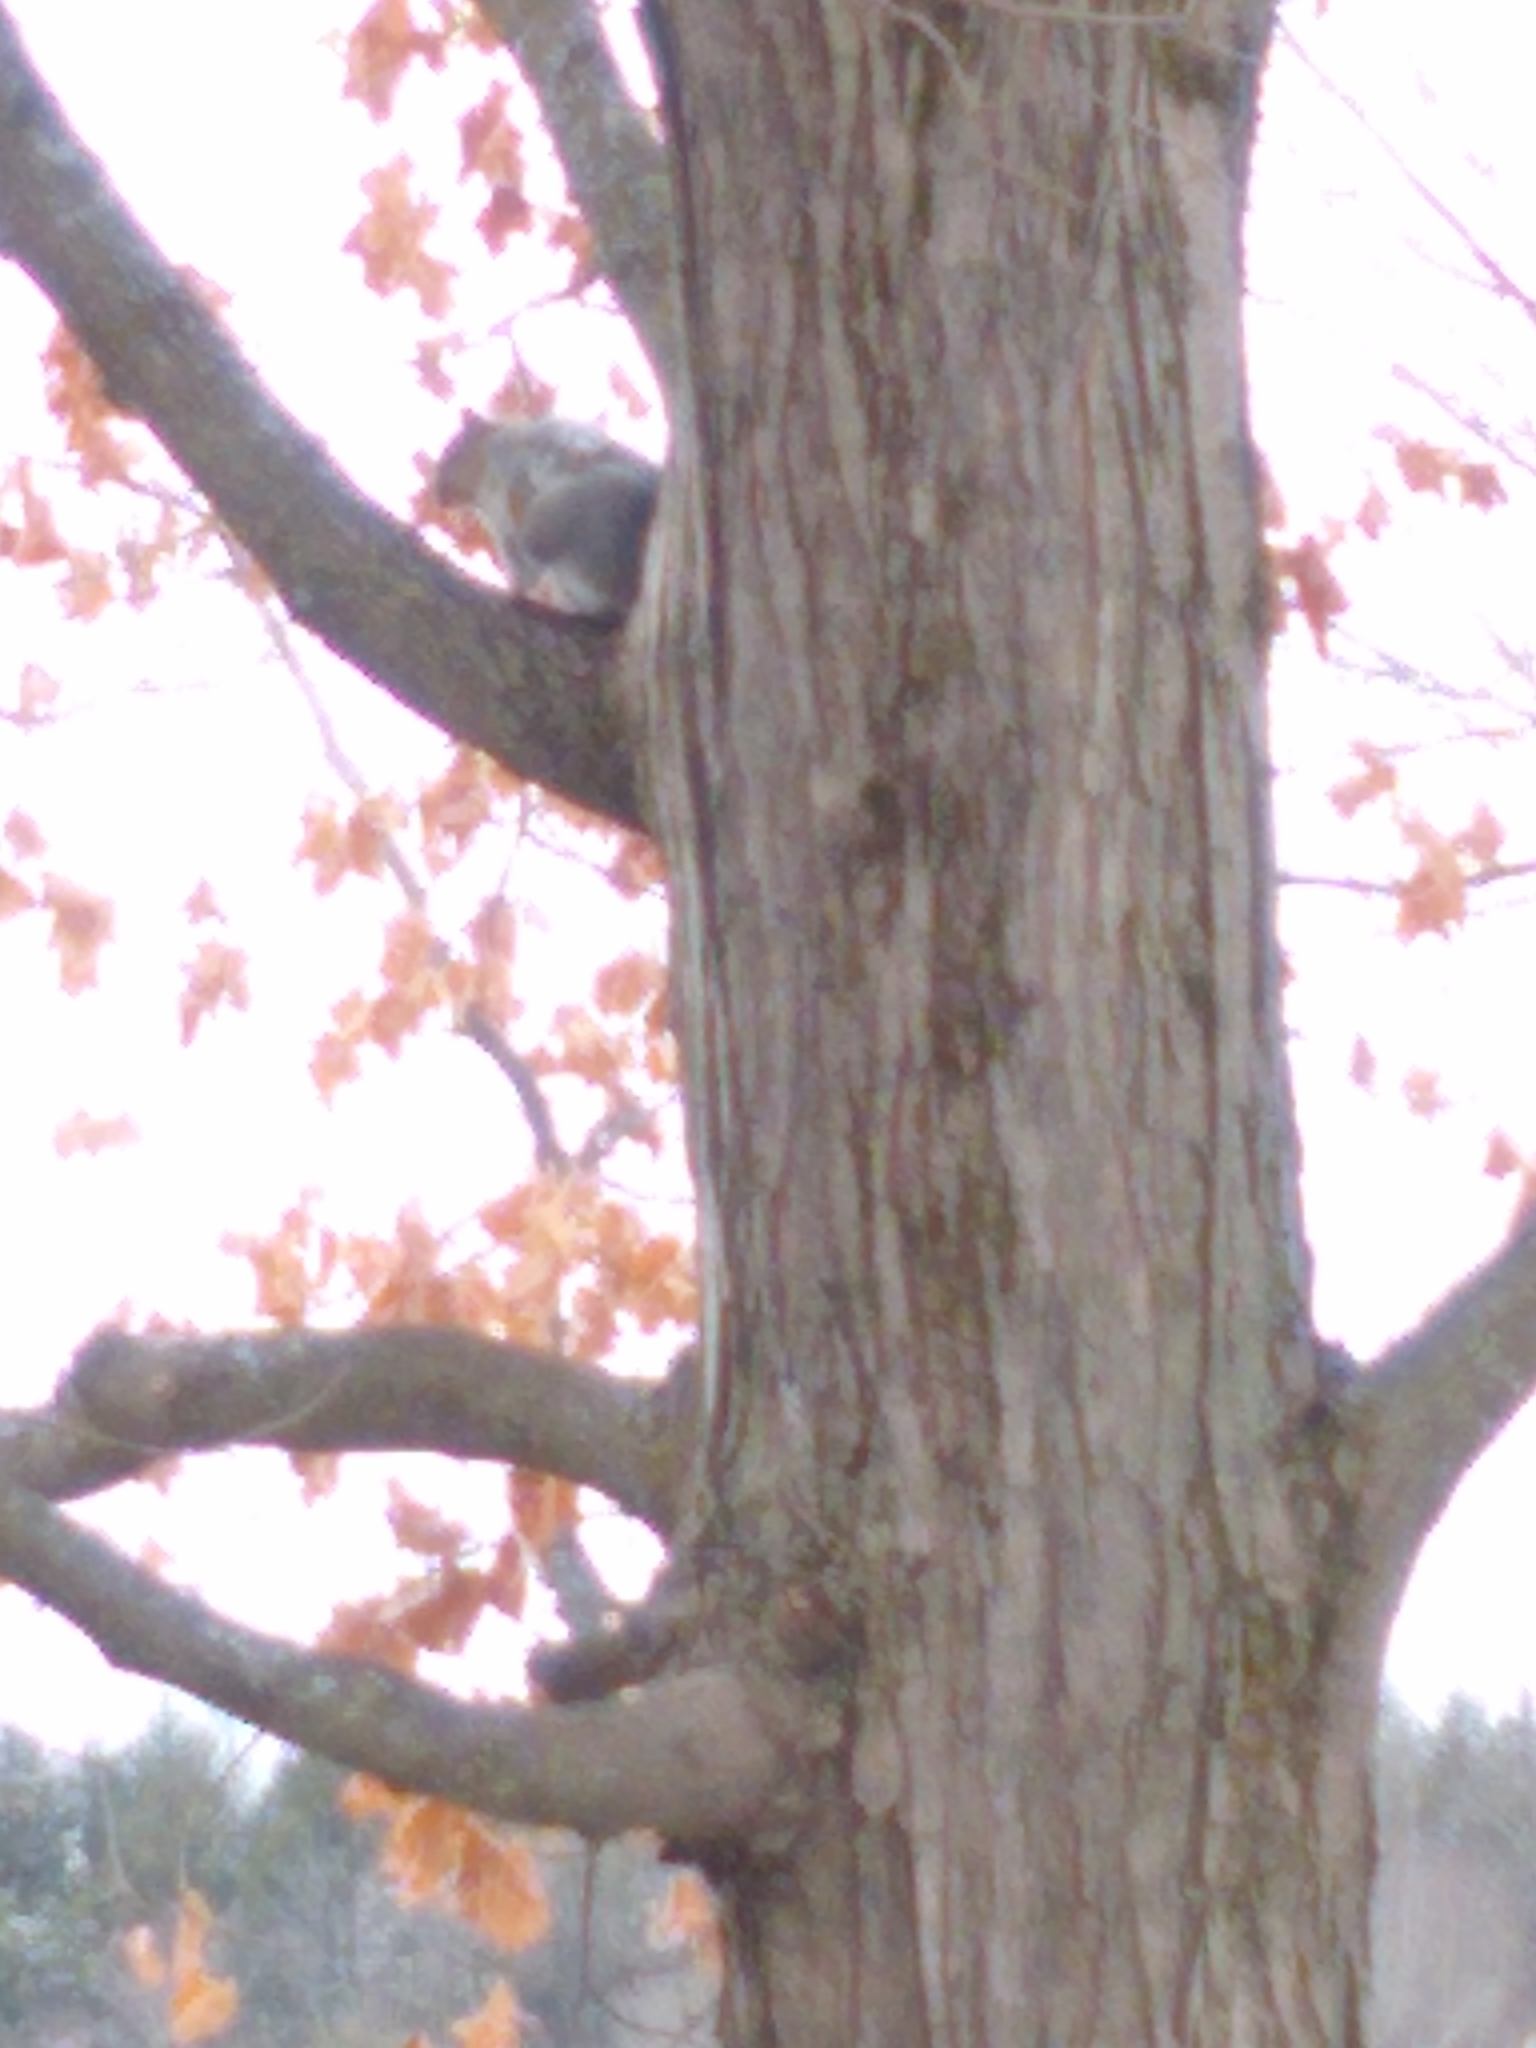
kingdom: Animalia
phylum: Chordata
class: Mammalia
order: Rodentia
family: Sciuridae
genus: Sciurus
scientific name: Sciurus carolinensis
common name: Eastern gray squirrel
